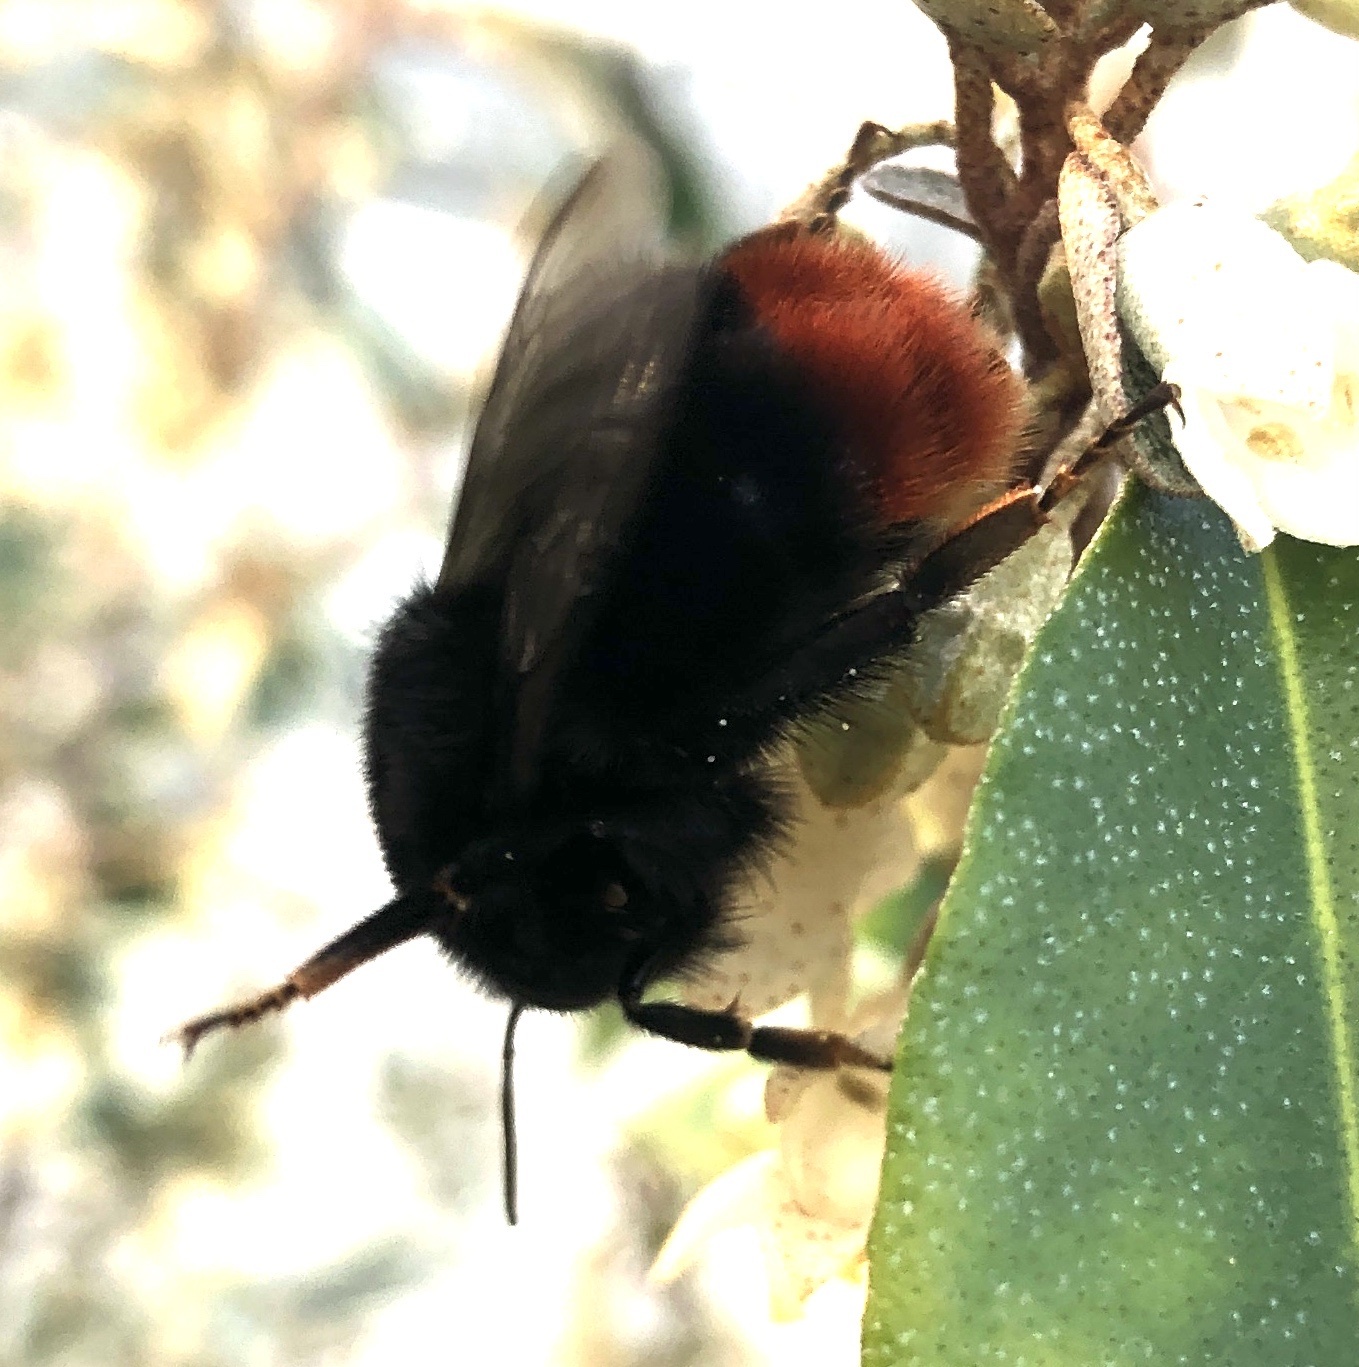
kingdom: Animalia
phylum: Arthropoda
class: Insecta
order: Hymenoptera
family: Apidae
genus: Bombus
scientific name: Bombus lapidarius
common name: Large red-tailed humble-bee
